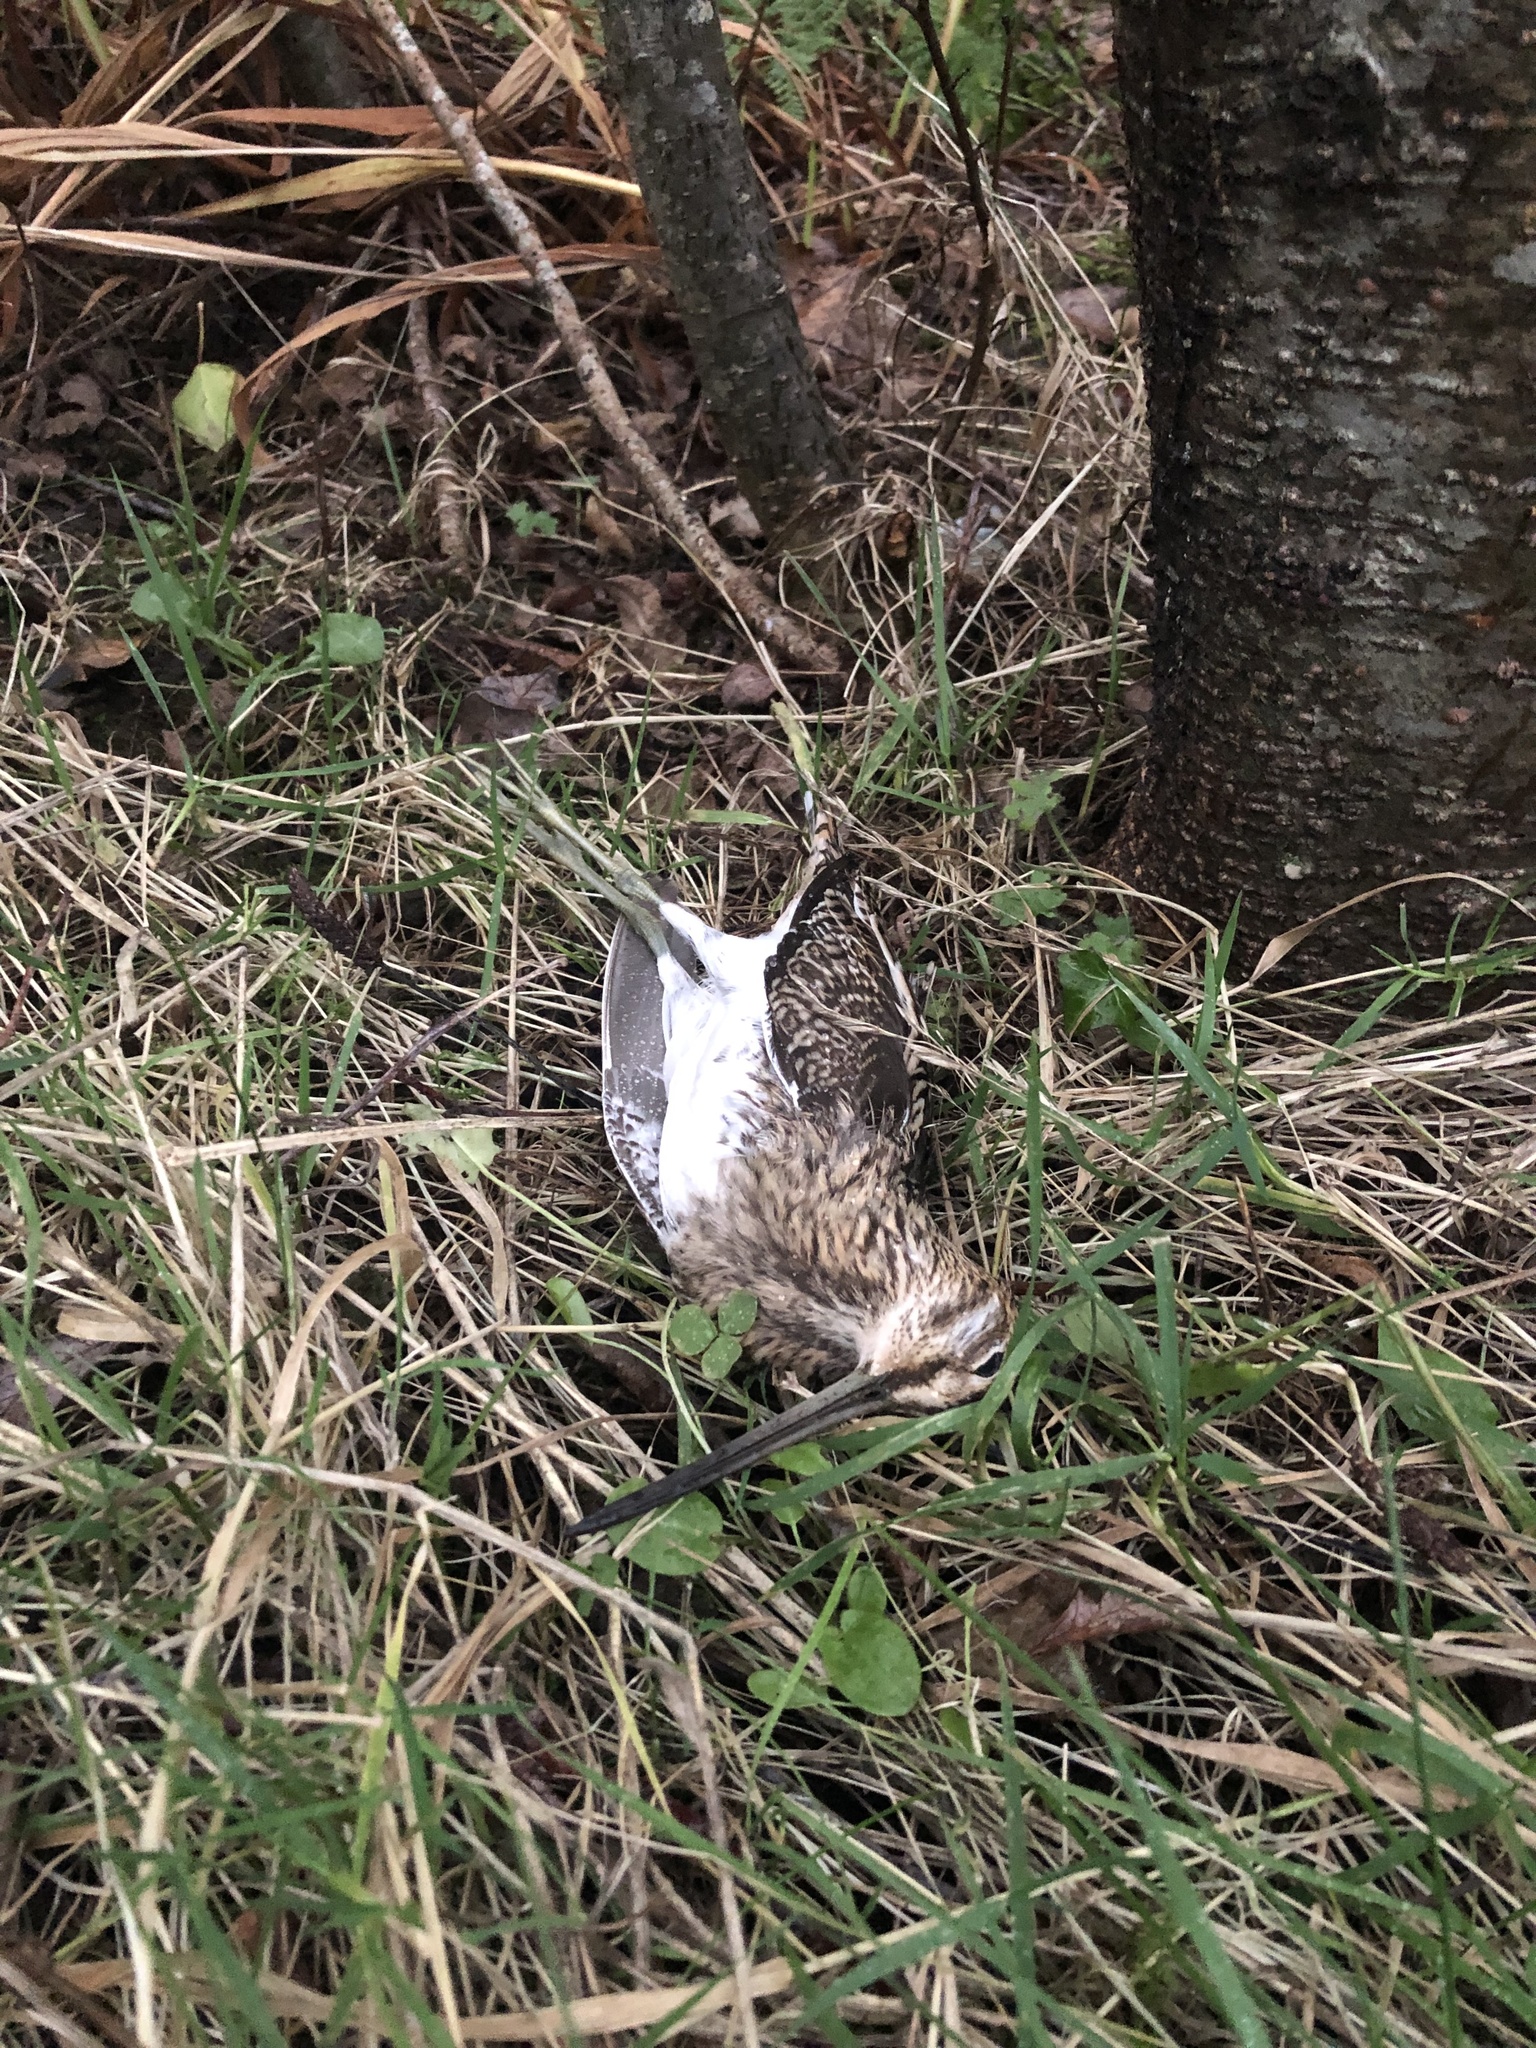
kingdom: Animalia
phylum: Chordata
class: Aves
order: Charadriiformes
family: Scolopacidae
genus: Gallinago
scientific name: Gallinago gallinago
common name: Common snipe
